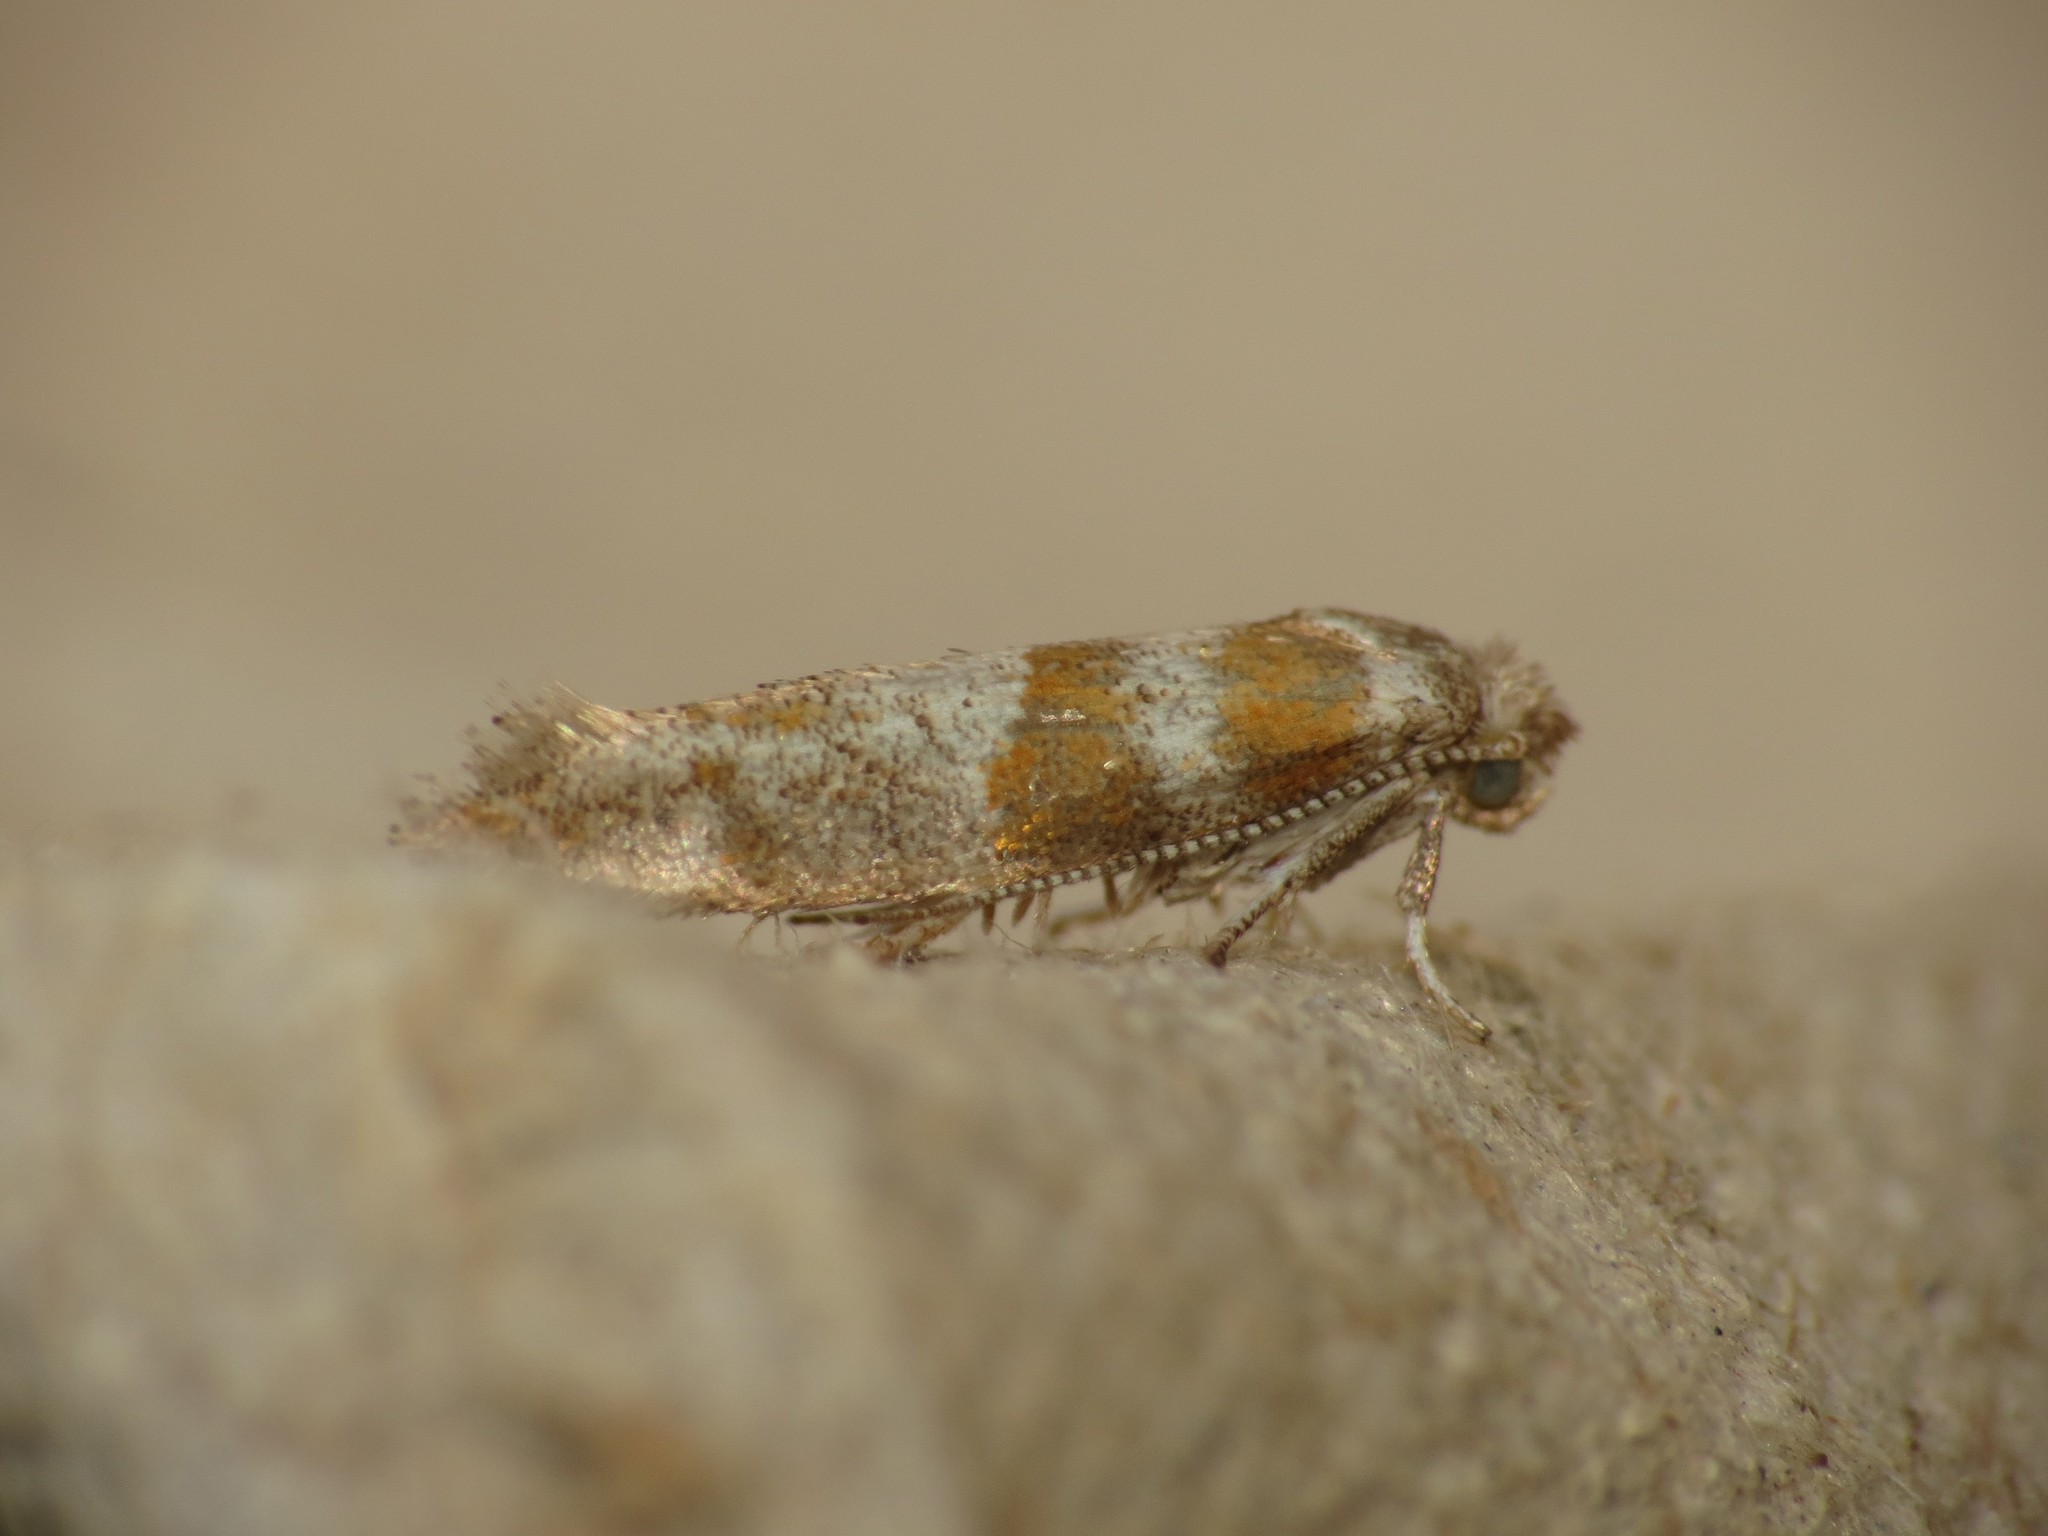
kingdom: Animalia
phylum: Arthropoda
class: Insecta
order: Lepidoptera
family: Yponomeutidae
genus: Cedestis
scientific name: Cedestis gysseleniella
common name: Gold pine ermel
